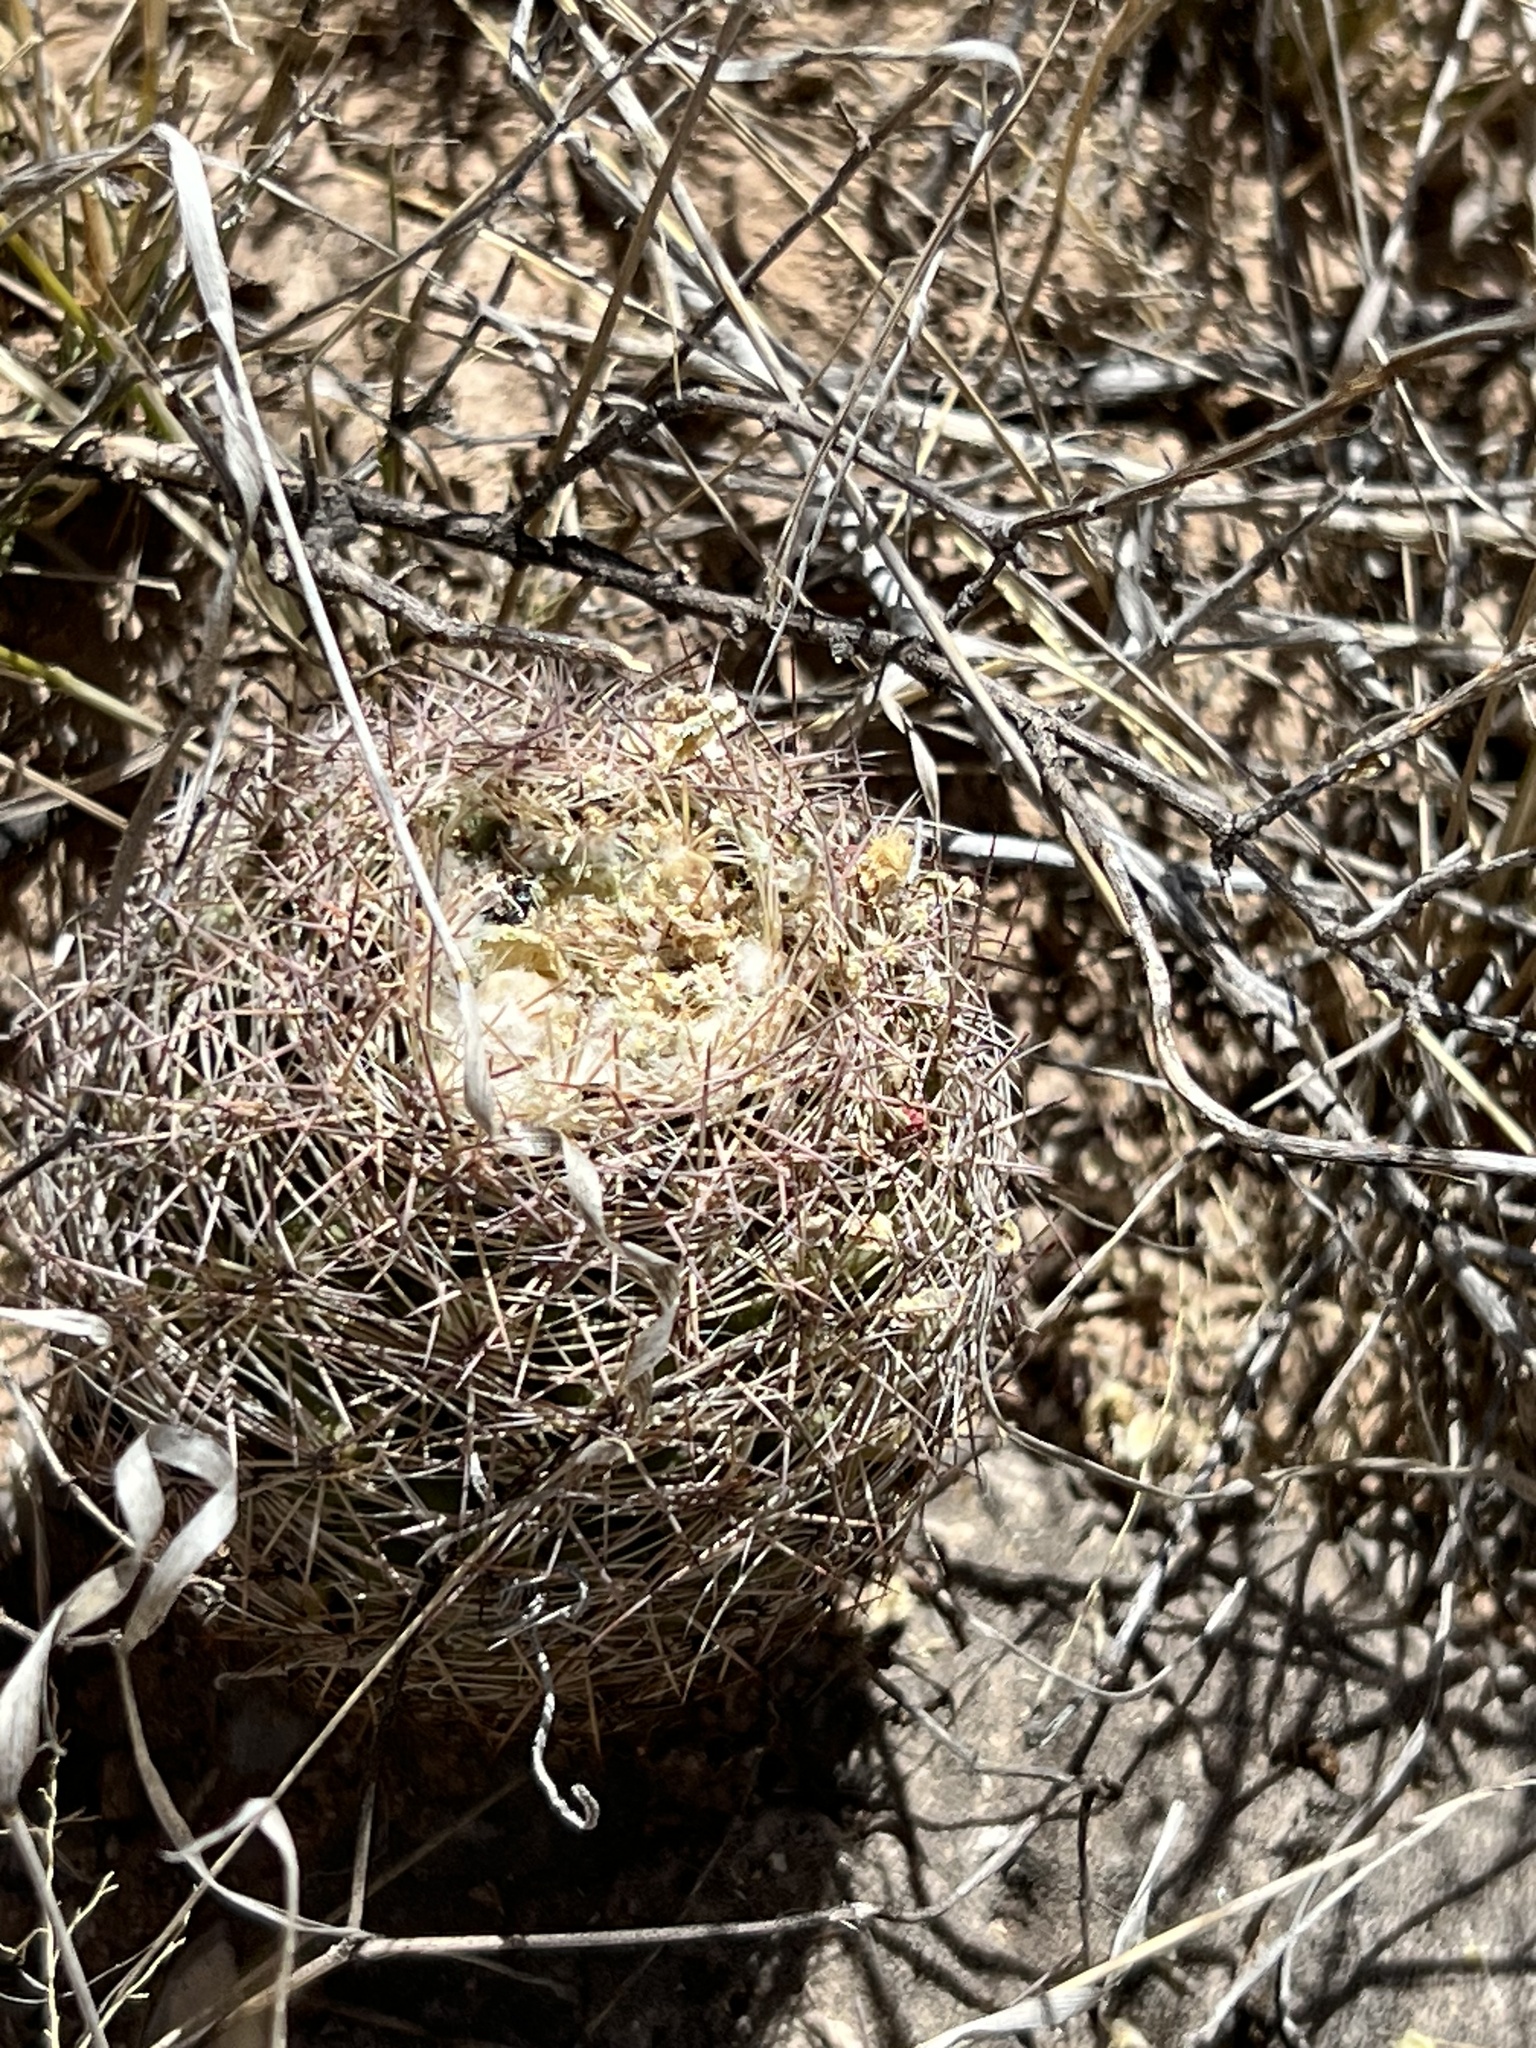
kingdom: Plantae
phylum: Tracheophyta
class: Magnoliopsida
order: Caryophyllales
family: Cactaceae
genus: Sclerocactus
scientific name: Sclerocactus intertextus
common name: White fish-hook cactus
